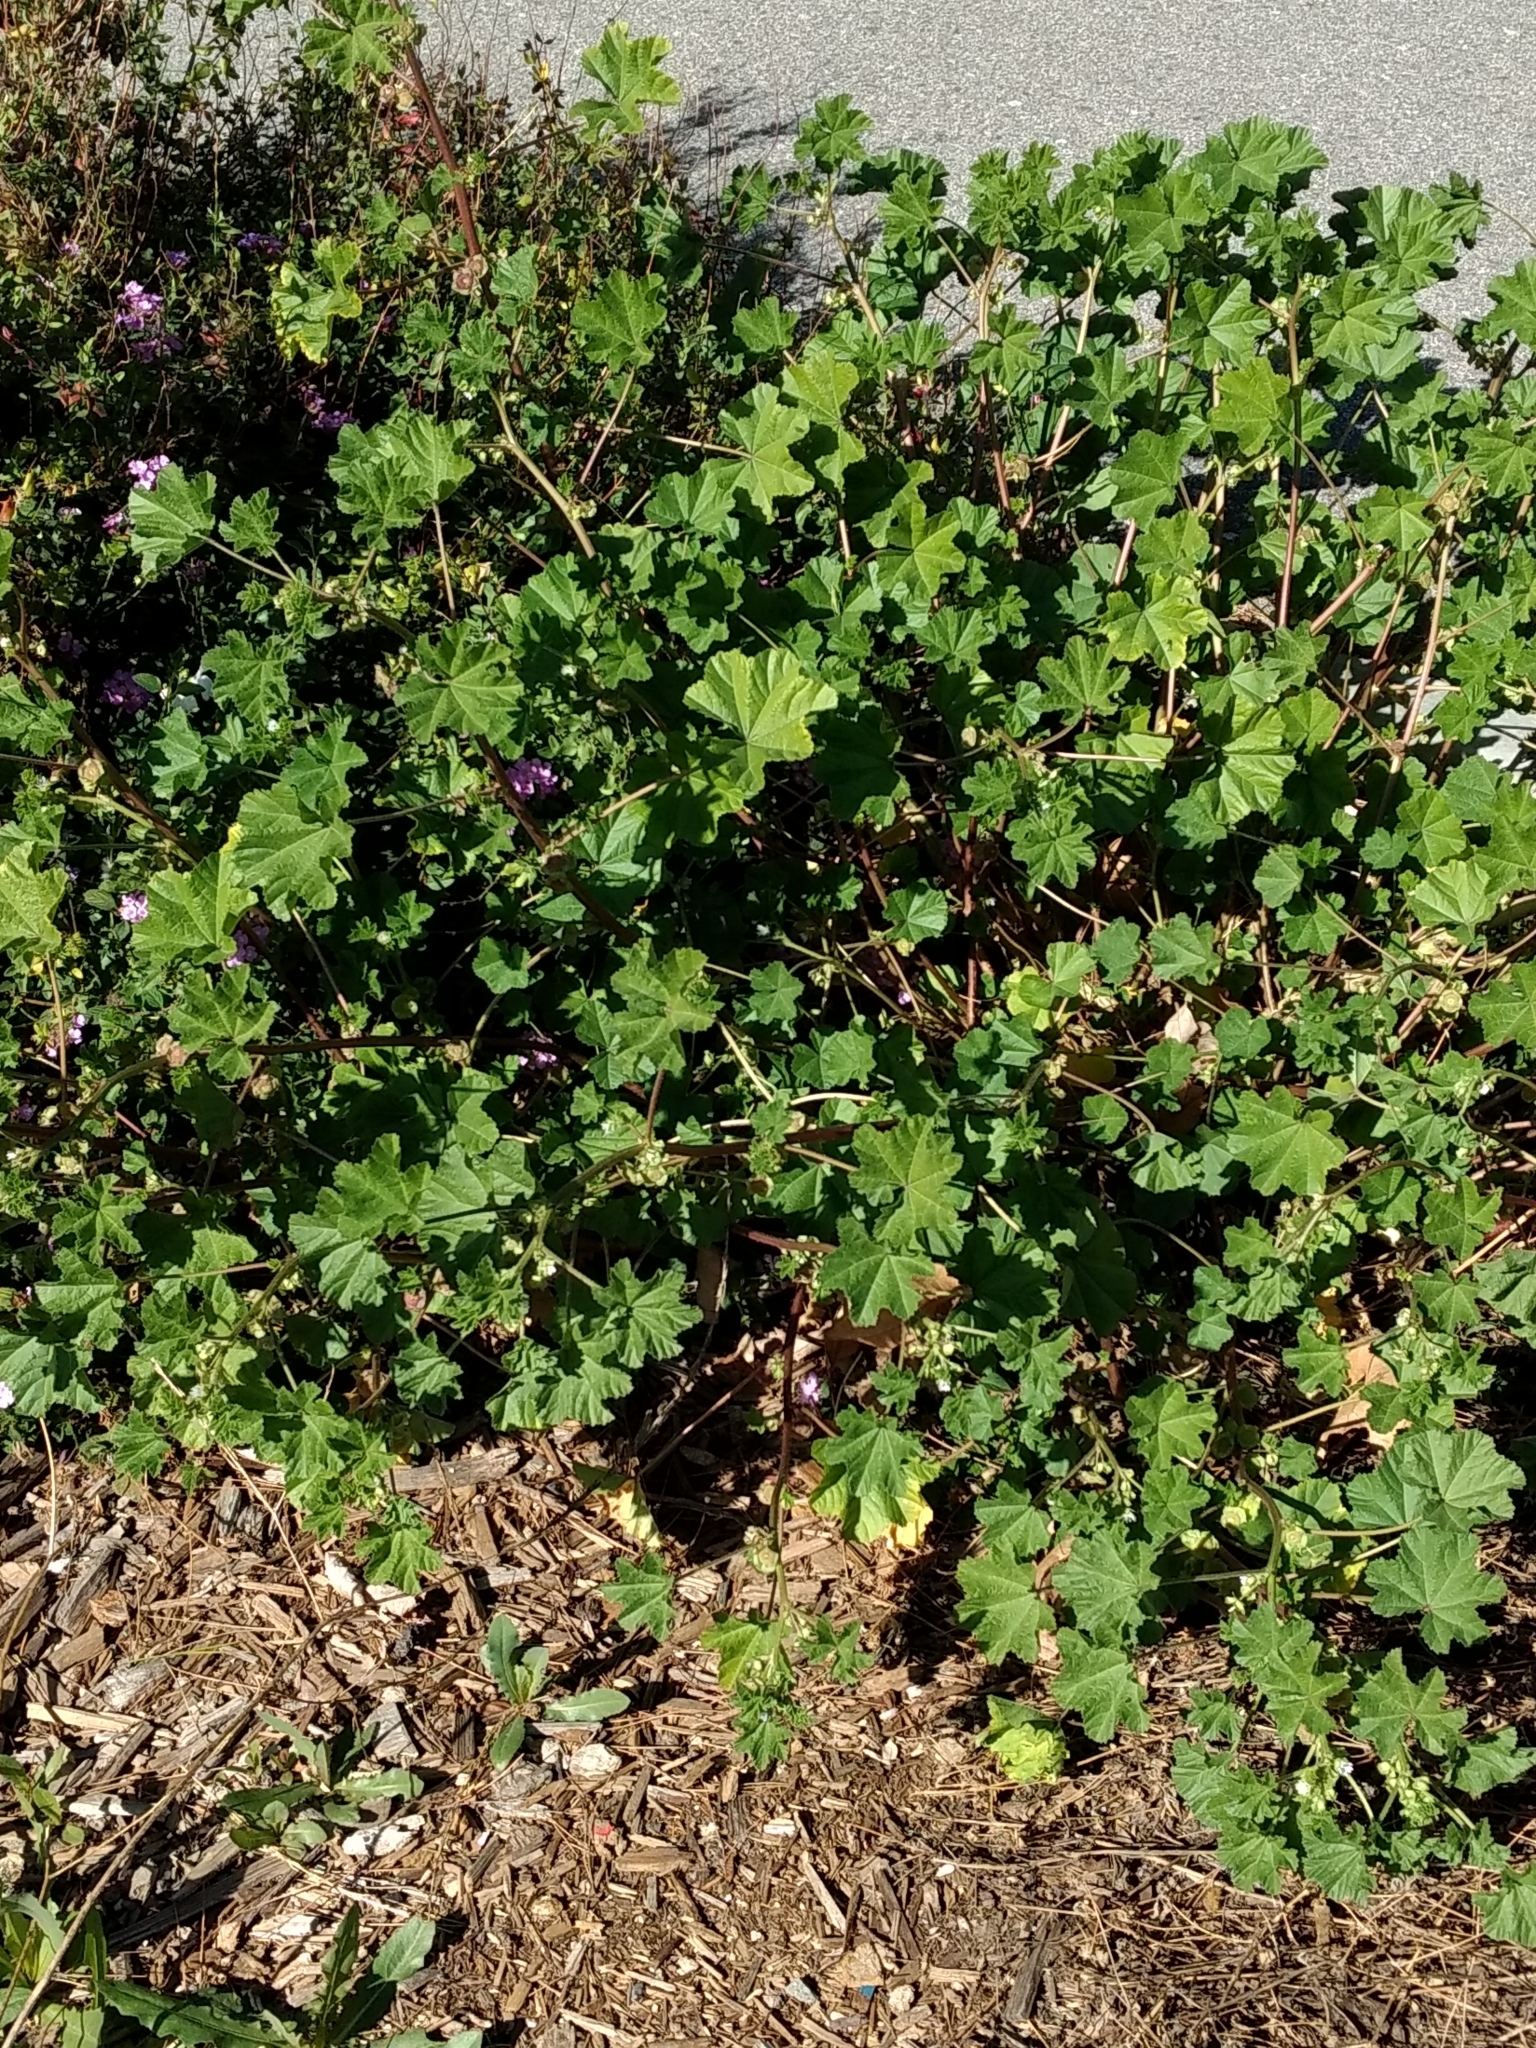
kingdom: Plantae
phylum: Tracheophyta
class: Magnoliopsida
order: Malvales
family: Malvaceae
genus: Malva
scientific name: Malva parviflora
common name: Least mallow
